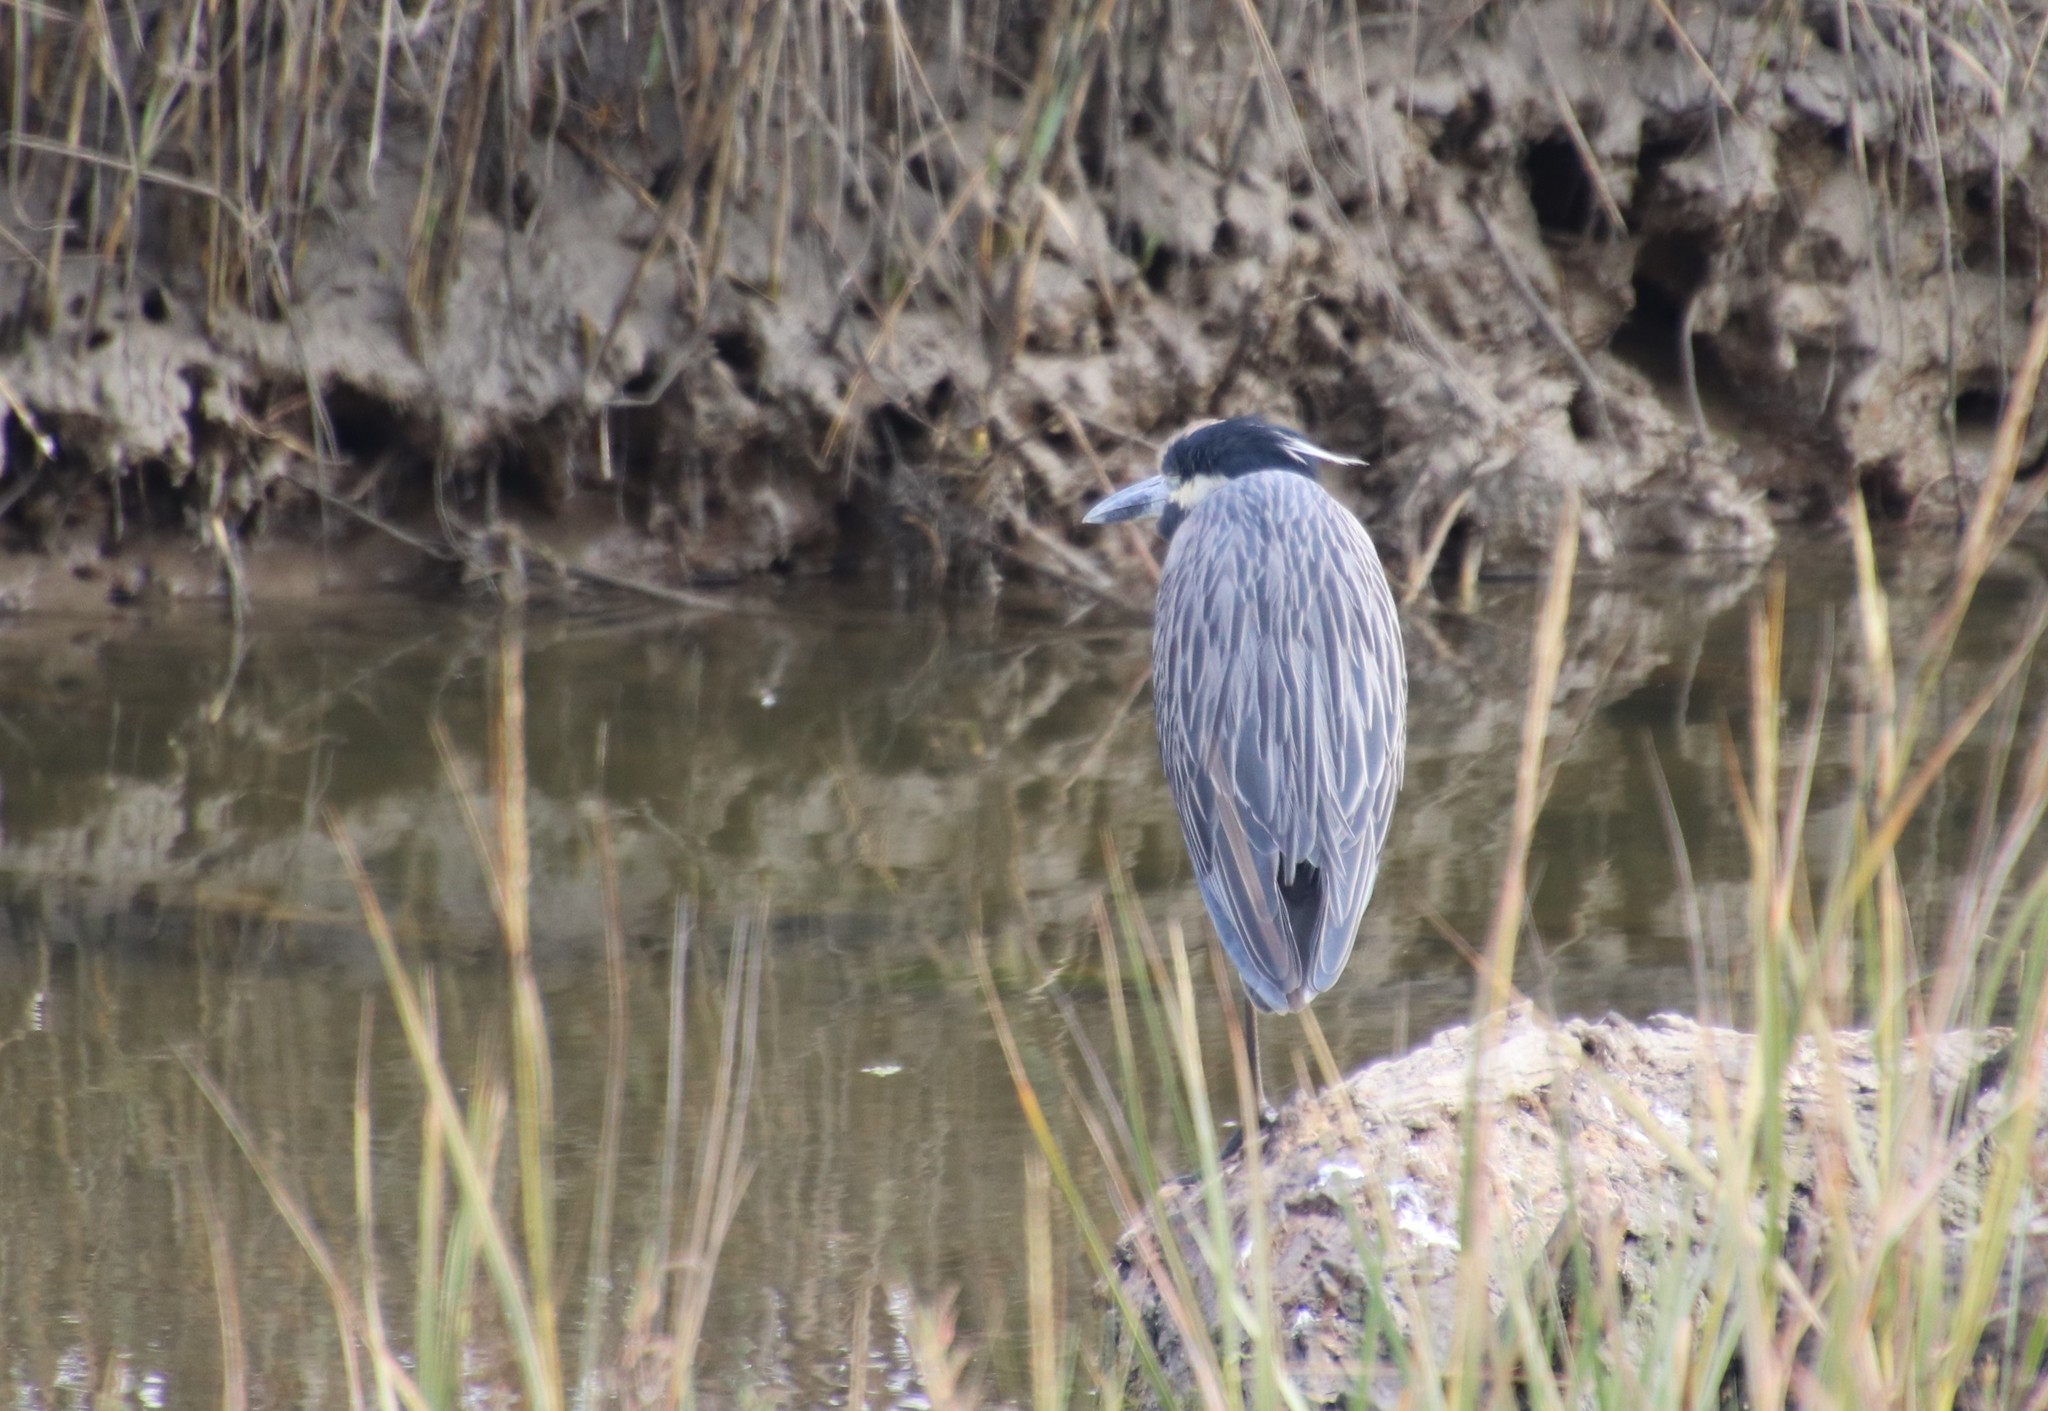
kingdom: Animalia
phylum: Chordata
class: Aves
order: Pelecaniformes
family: Ardeidae
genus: Nyctanassa
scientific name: Nyctanassa violacea
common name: Yellow-crowned night heron
